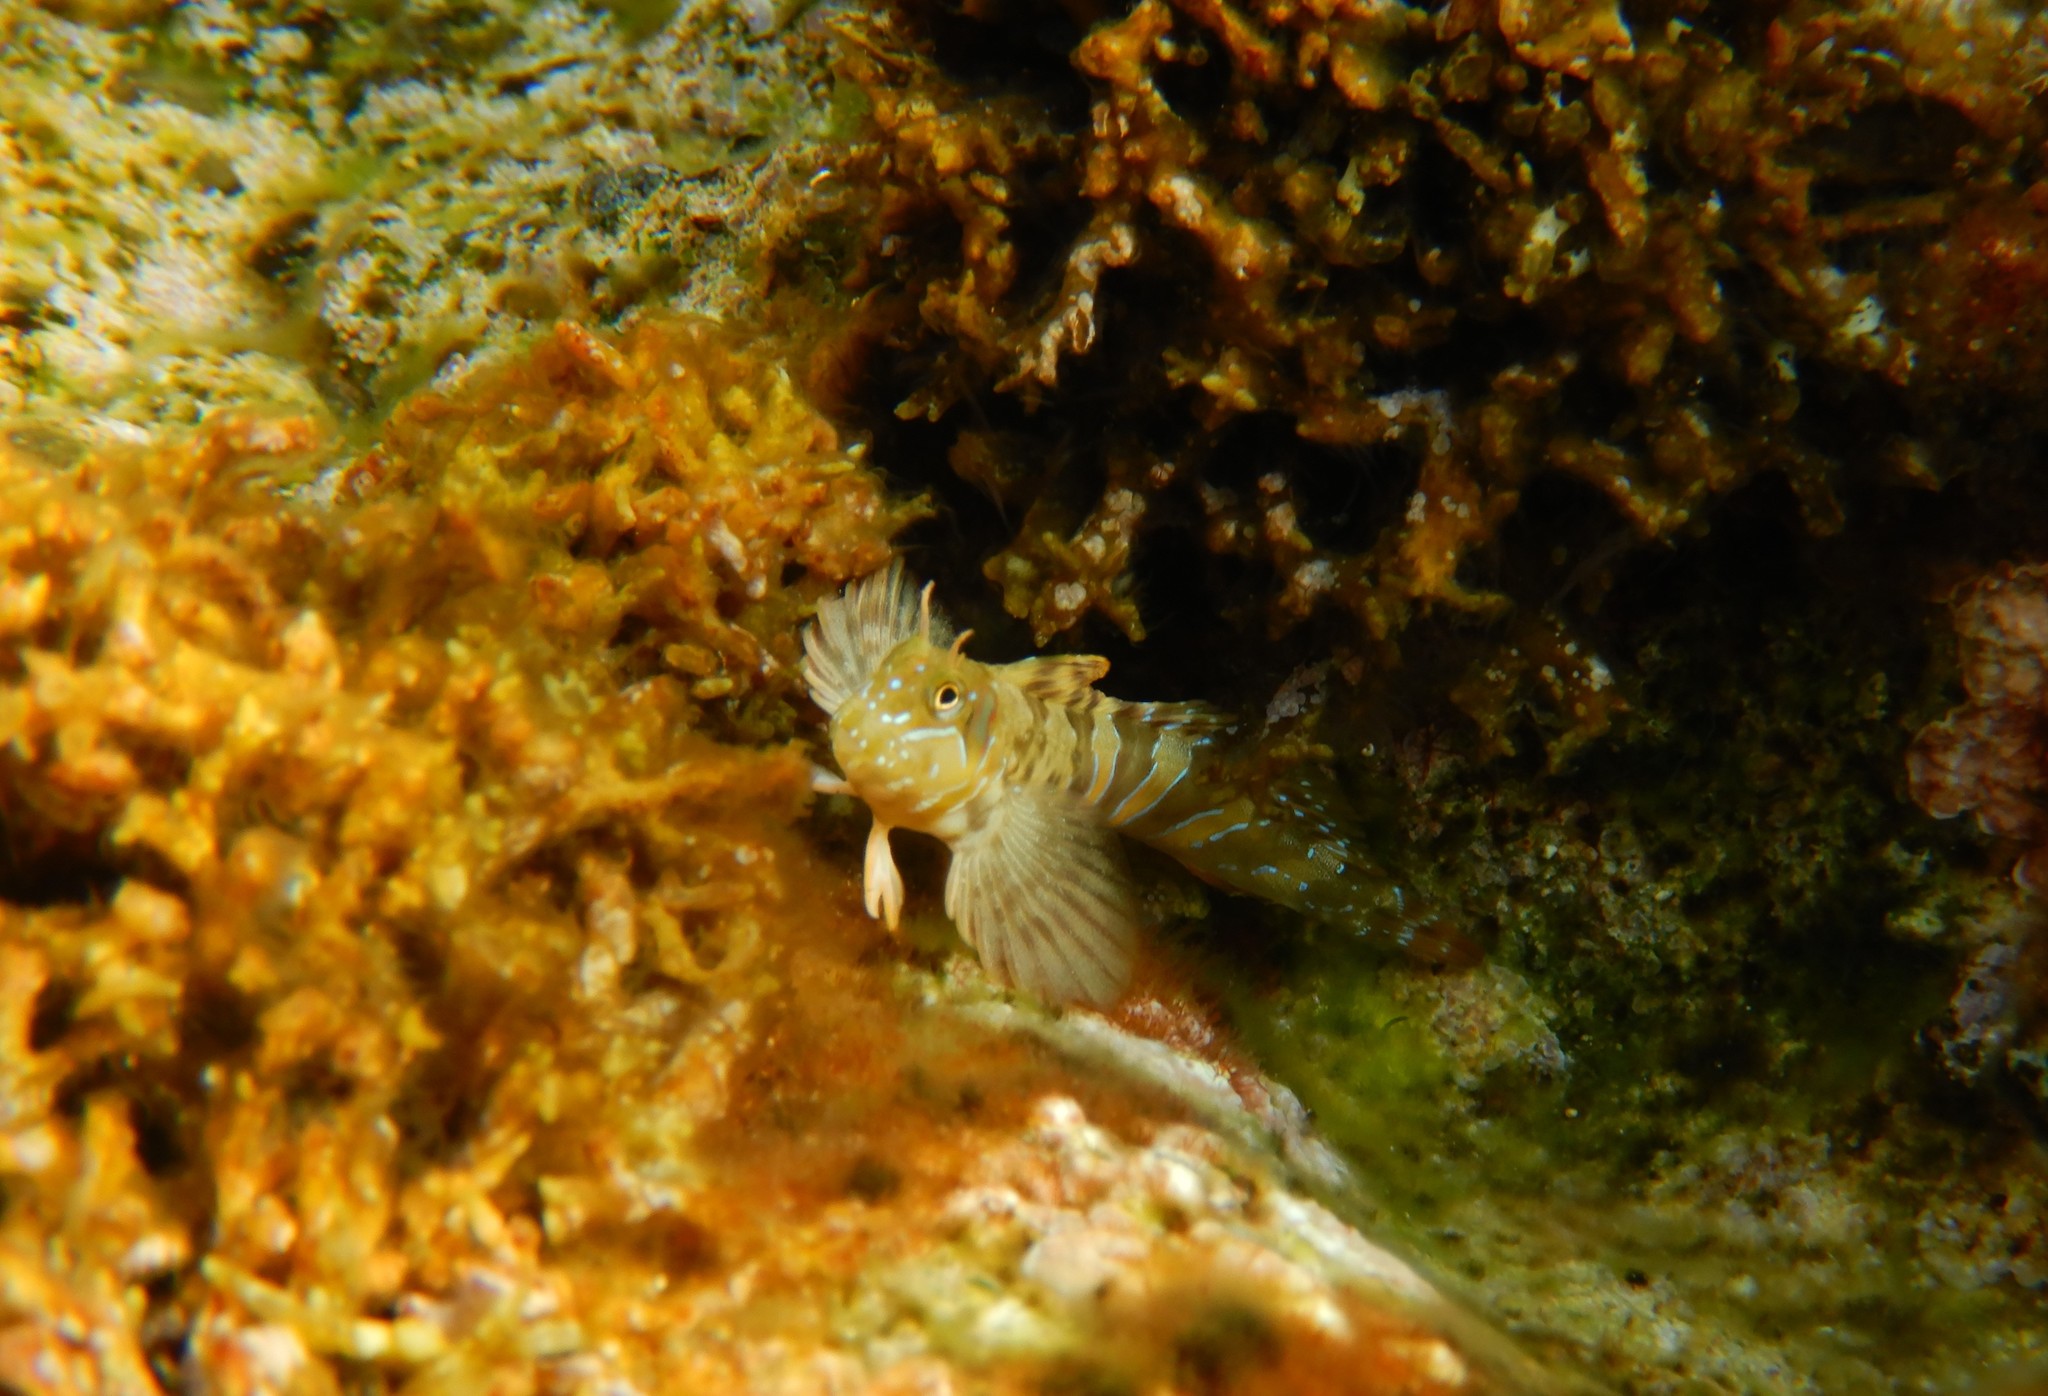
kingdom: Animalia
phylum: Chordata
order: Perciformes
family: Blenniidae
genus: Aidablennius
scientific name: Aidablennius sphynx
